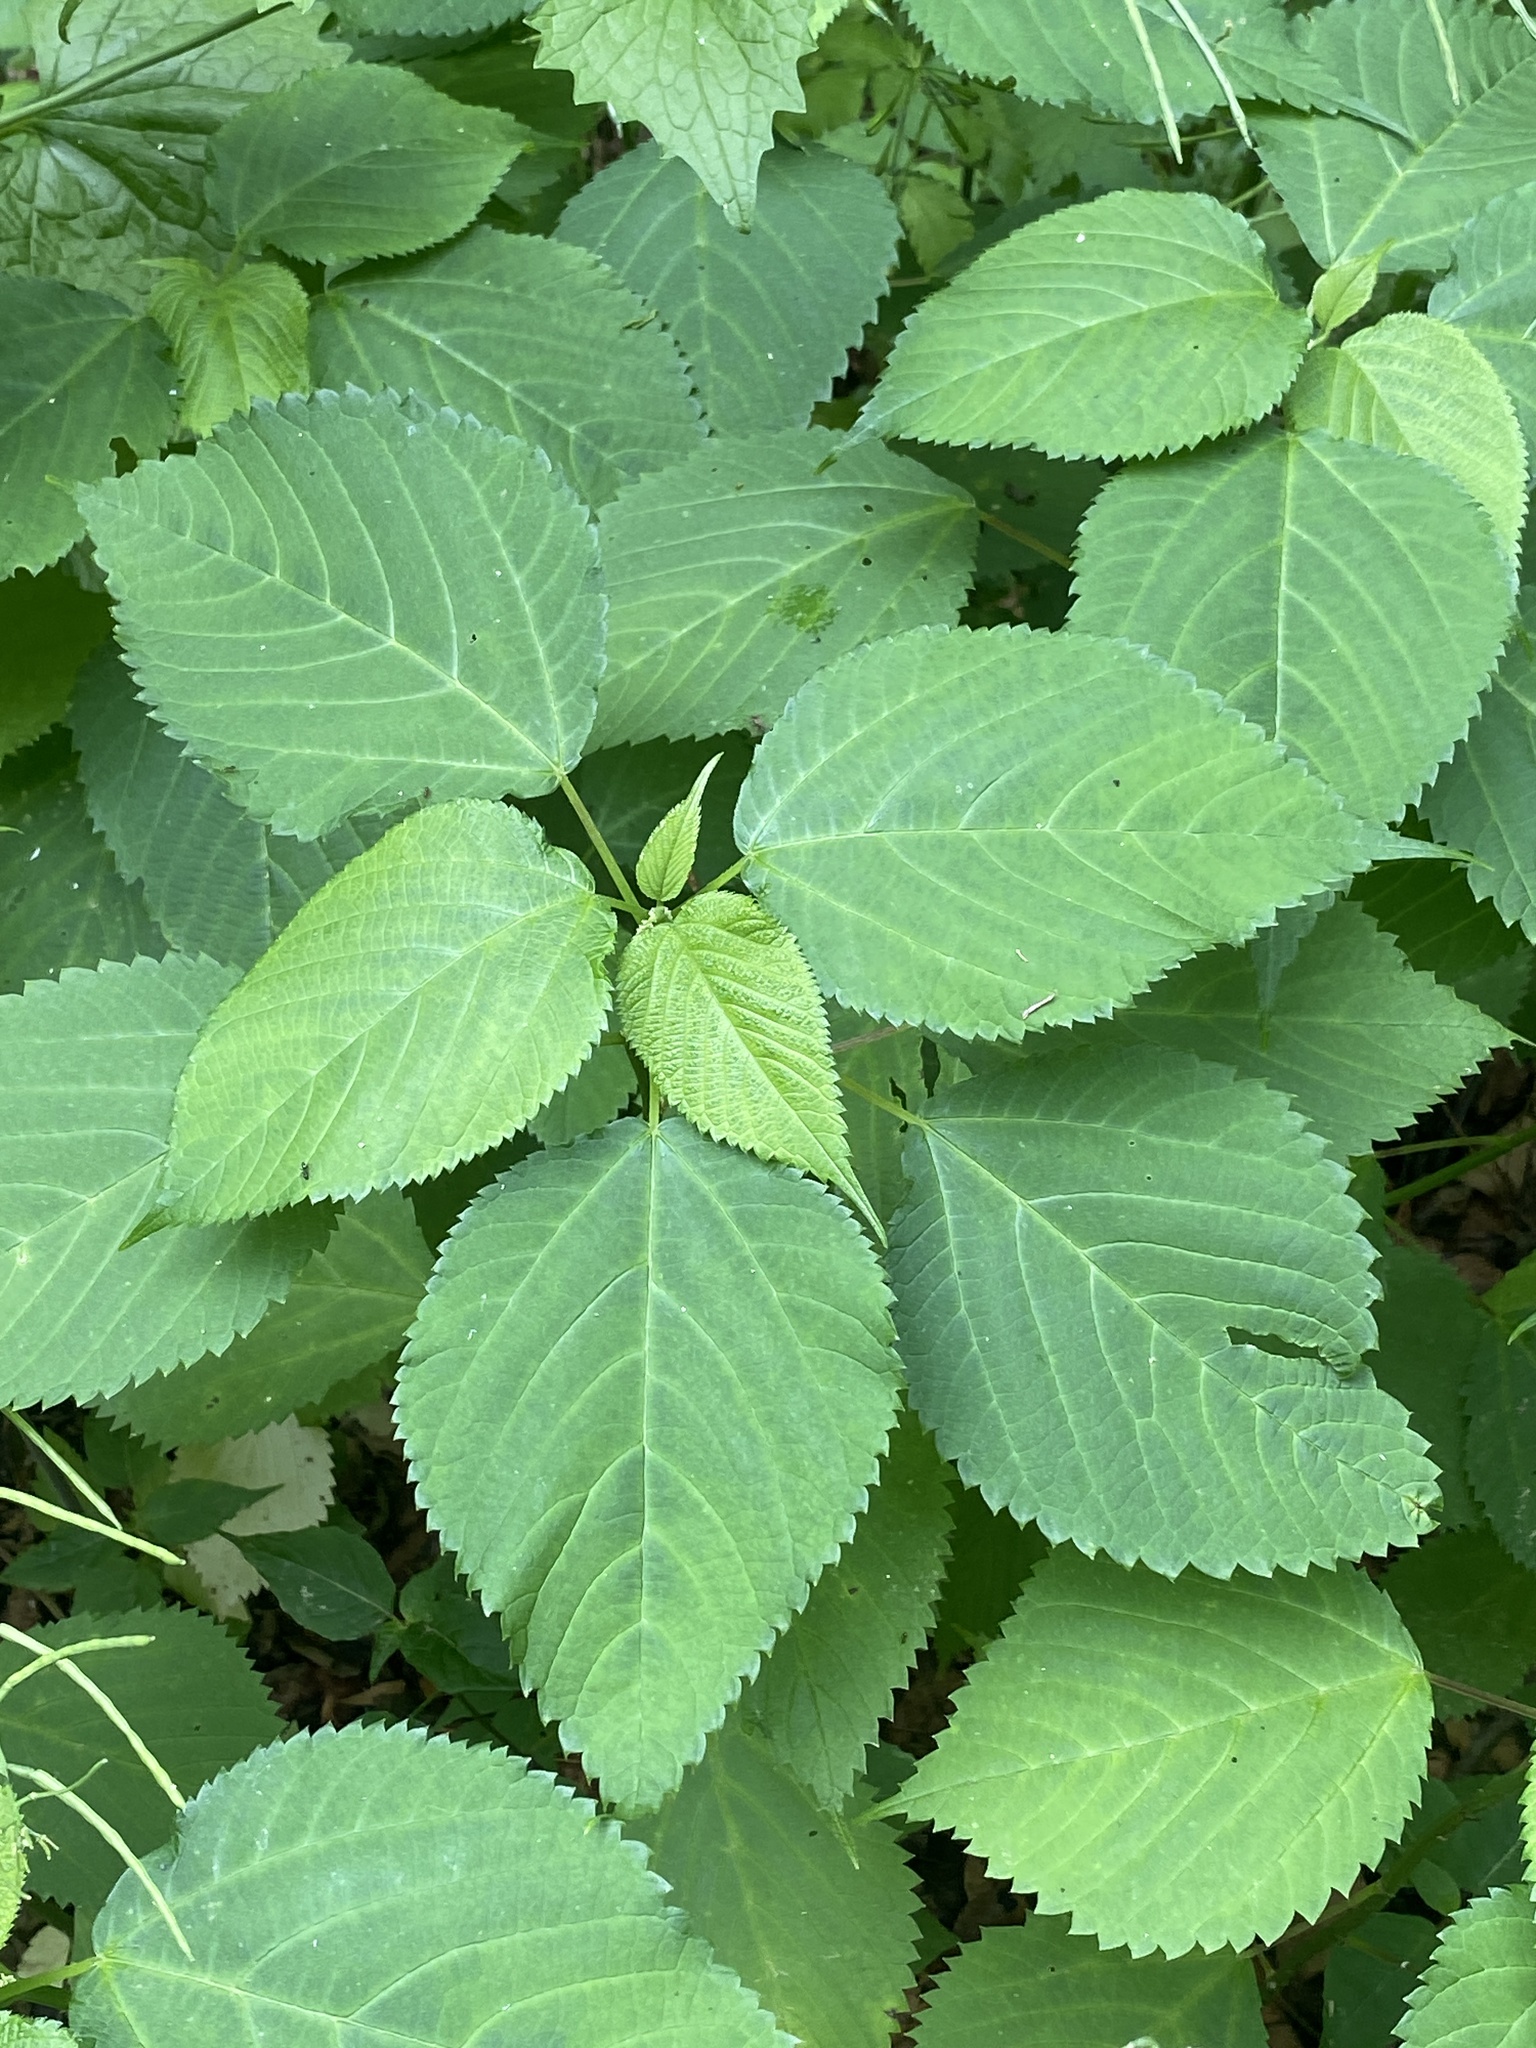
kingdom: Plantae
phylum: Tracheophyta
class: Magnoliopsida
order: Rosales
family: Urticaceae
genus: Laportea
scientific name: Laportea canadensis
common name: Canada nettle
